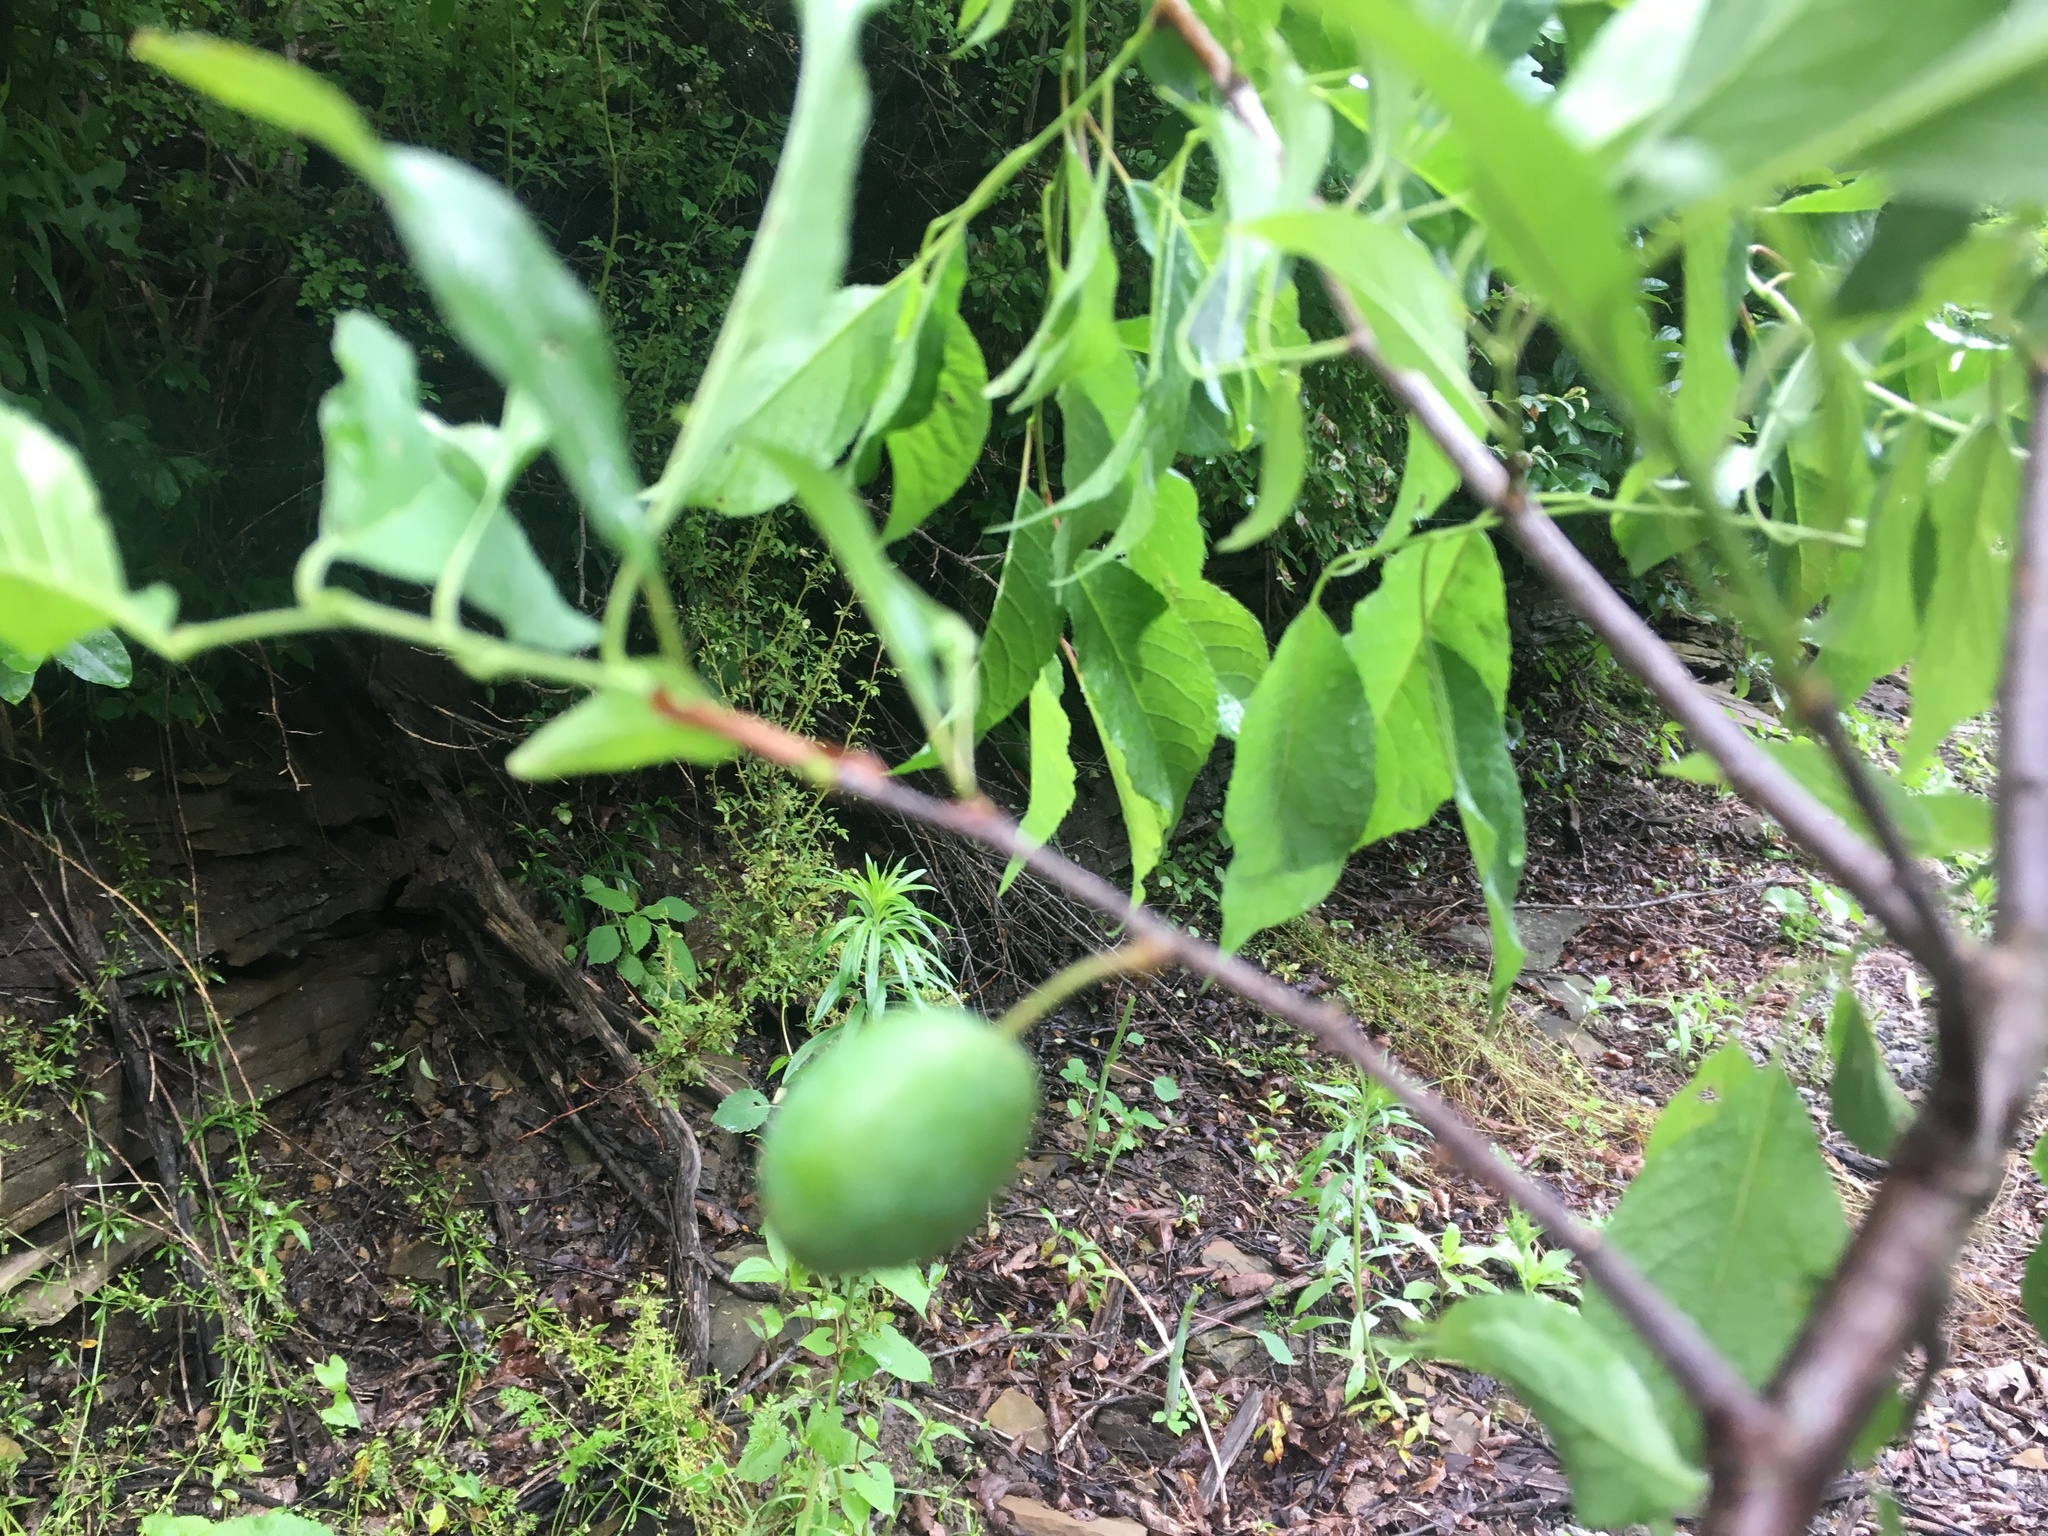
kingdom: Plantae
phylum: Tracheophyta
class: Magnoliopsida
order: Rosales
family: Rosaceae
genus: Prunus
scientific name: Prunus americana
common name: American plum
